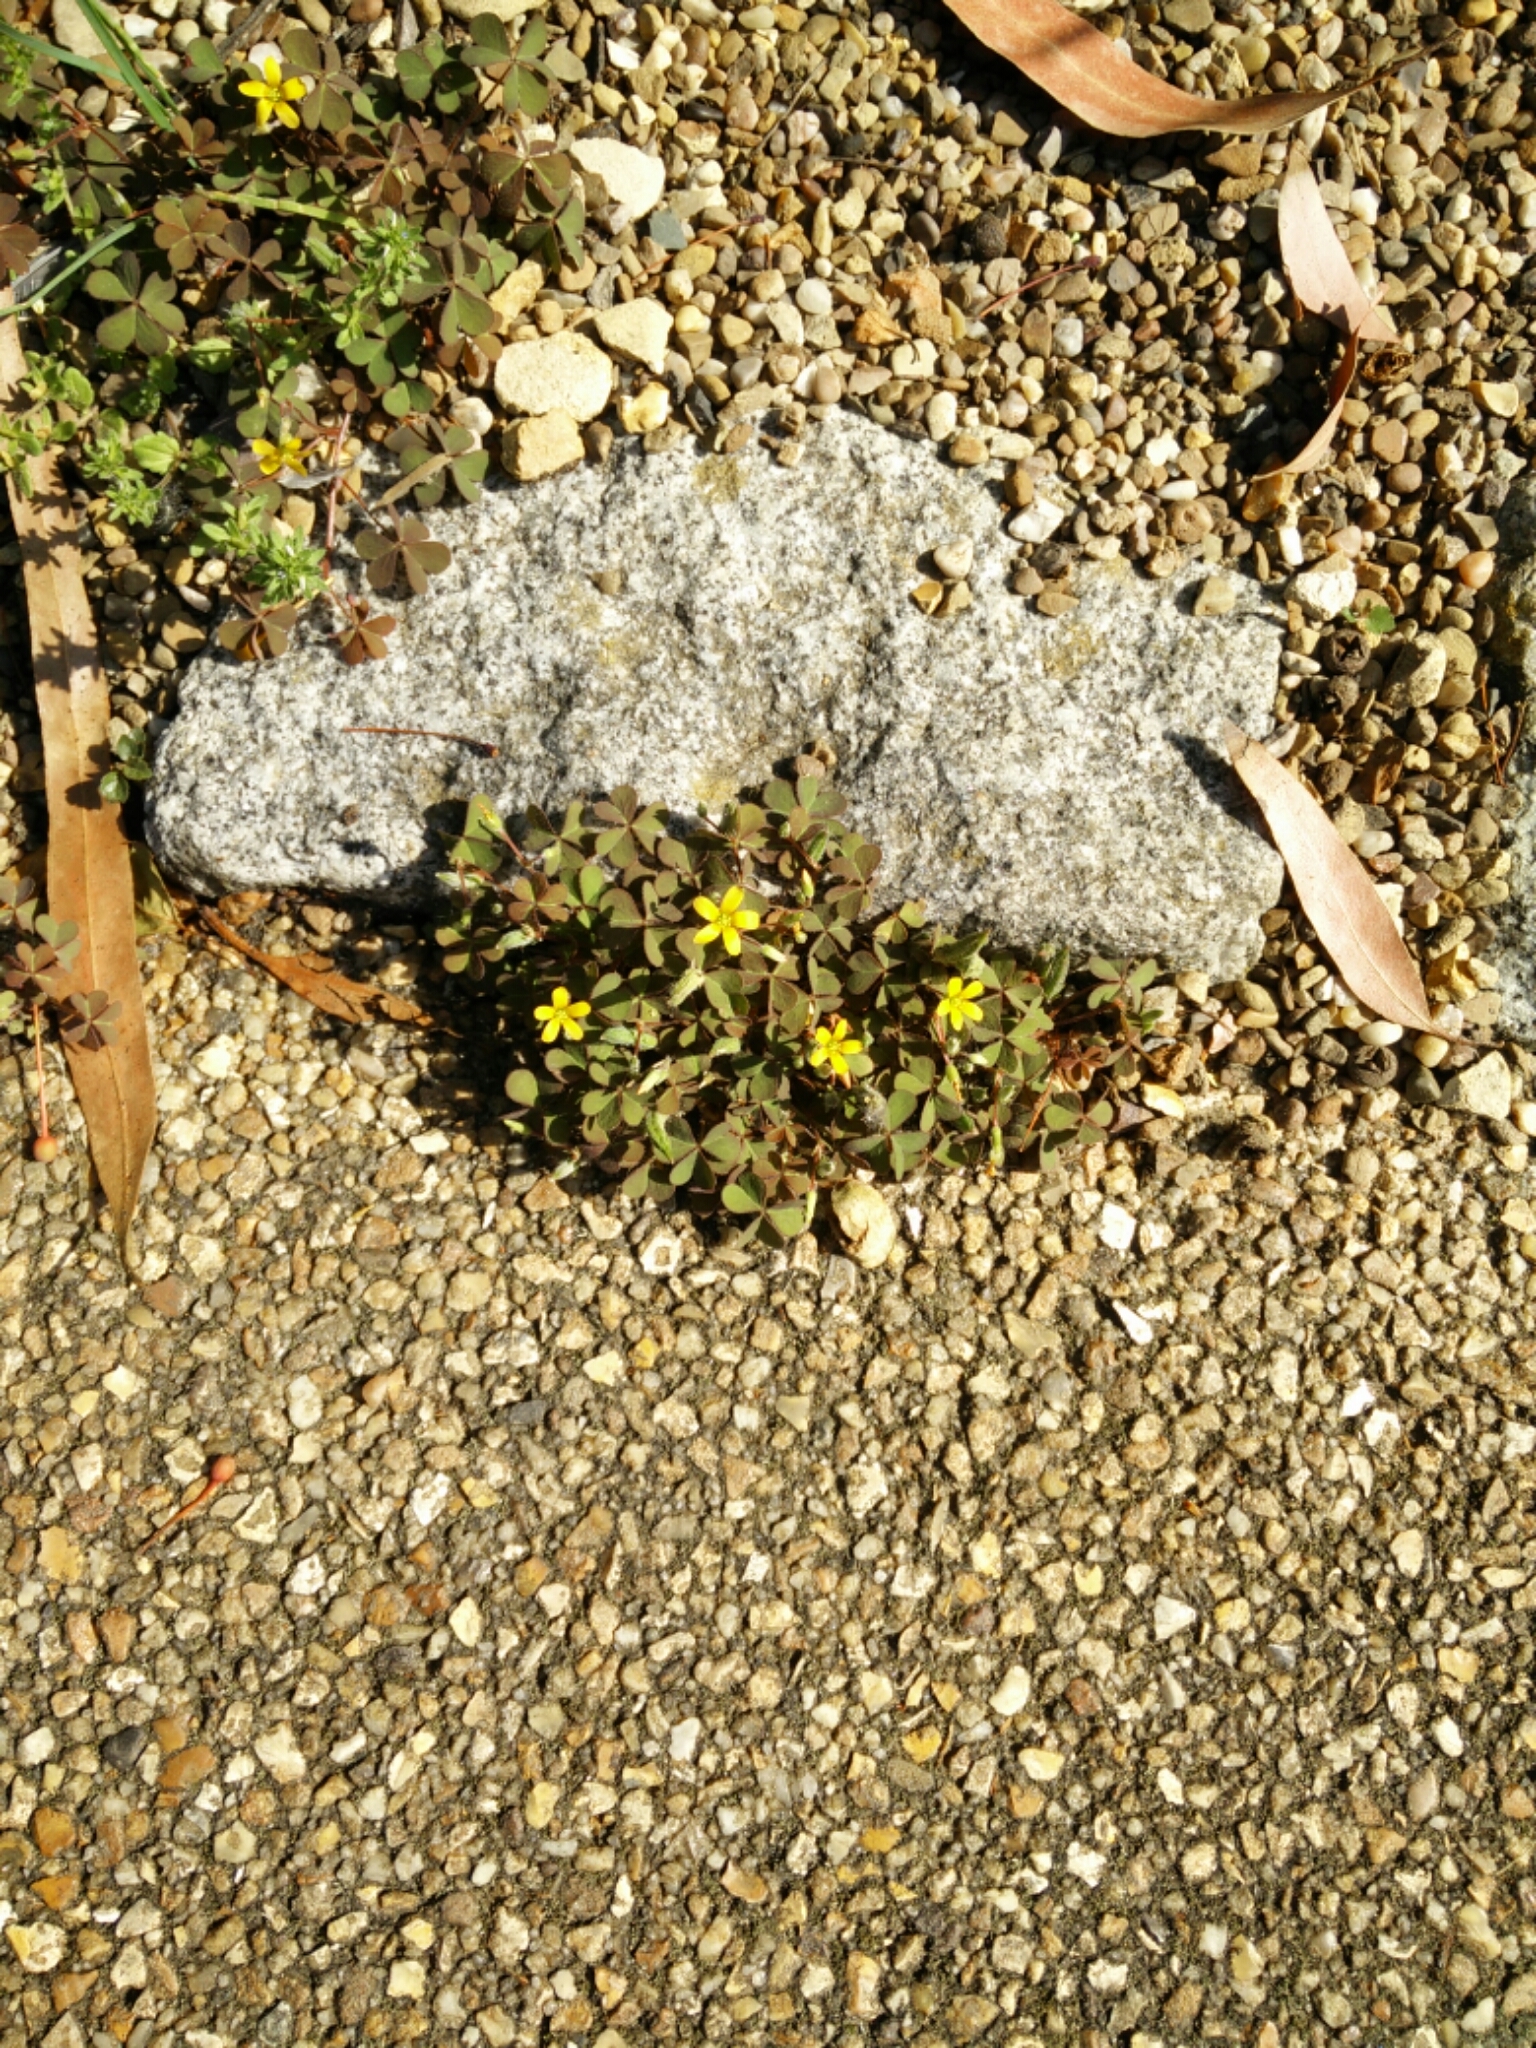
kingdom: Plantae
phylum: Tracheophyta
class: Magnoliopsida
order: Oxalidales
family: Oxalidaceae
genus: Oxalis
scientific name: Oxalis corniculata
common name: Procumbent yellow-sorrel
